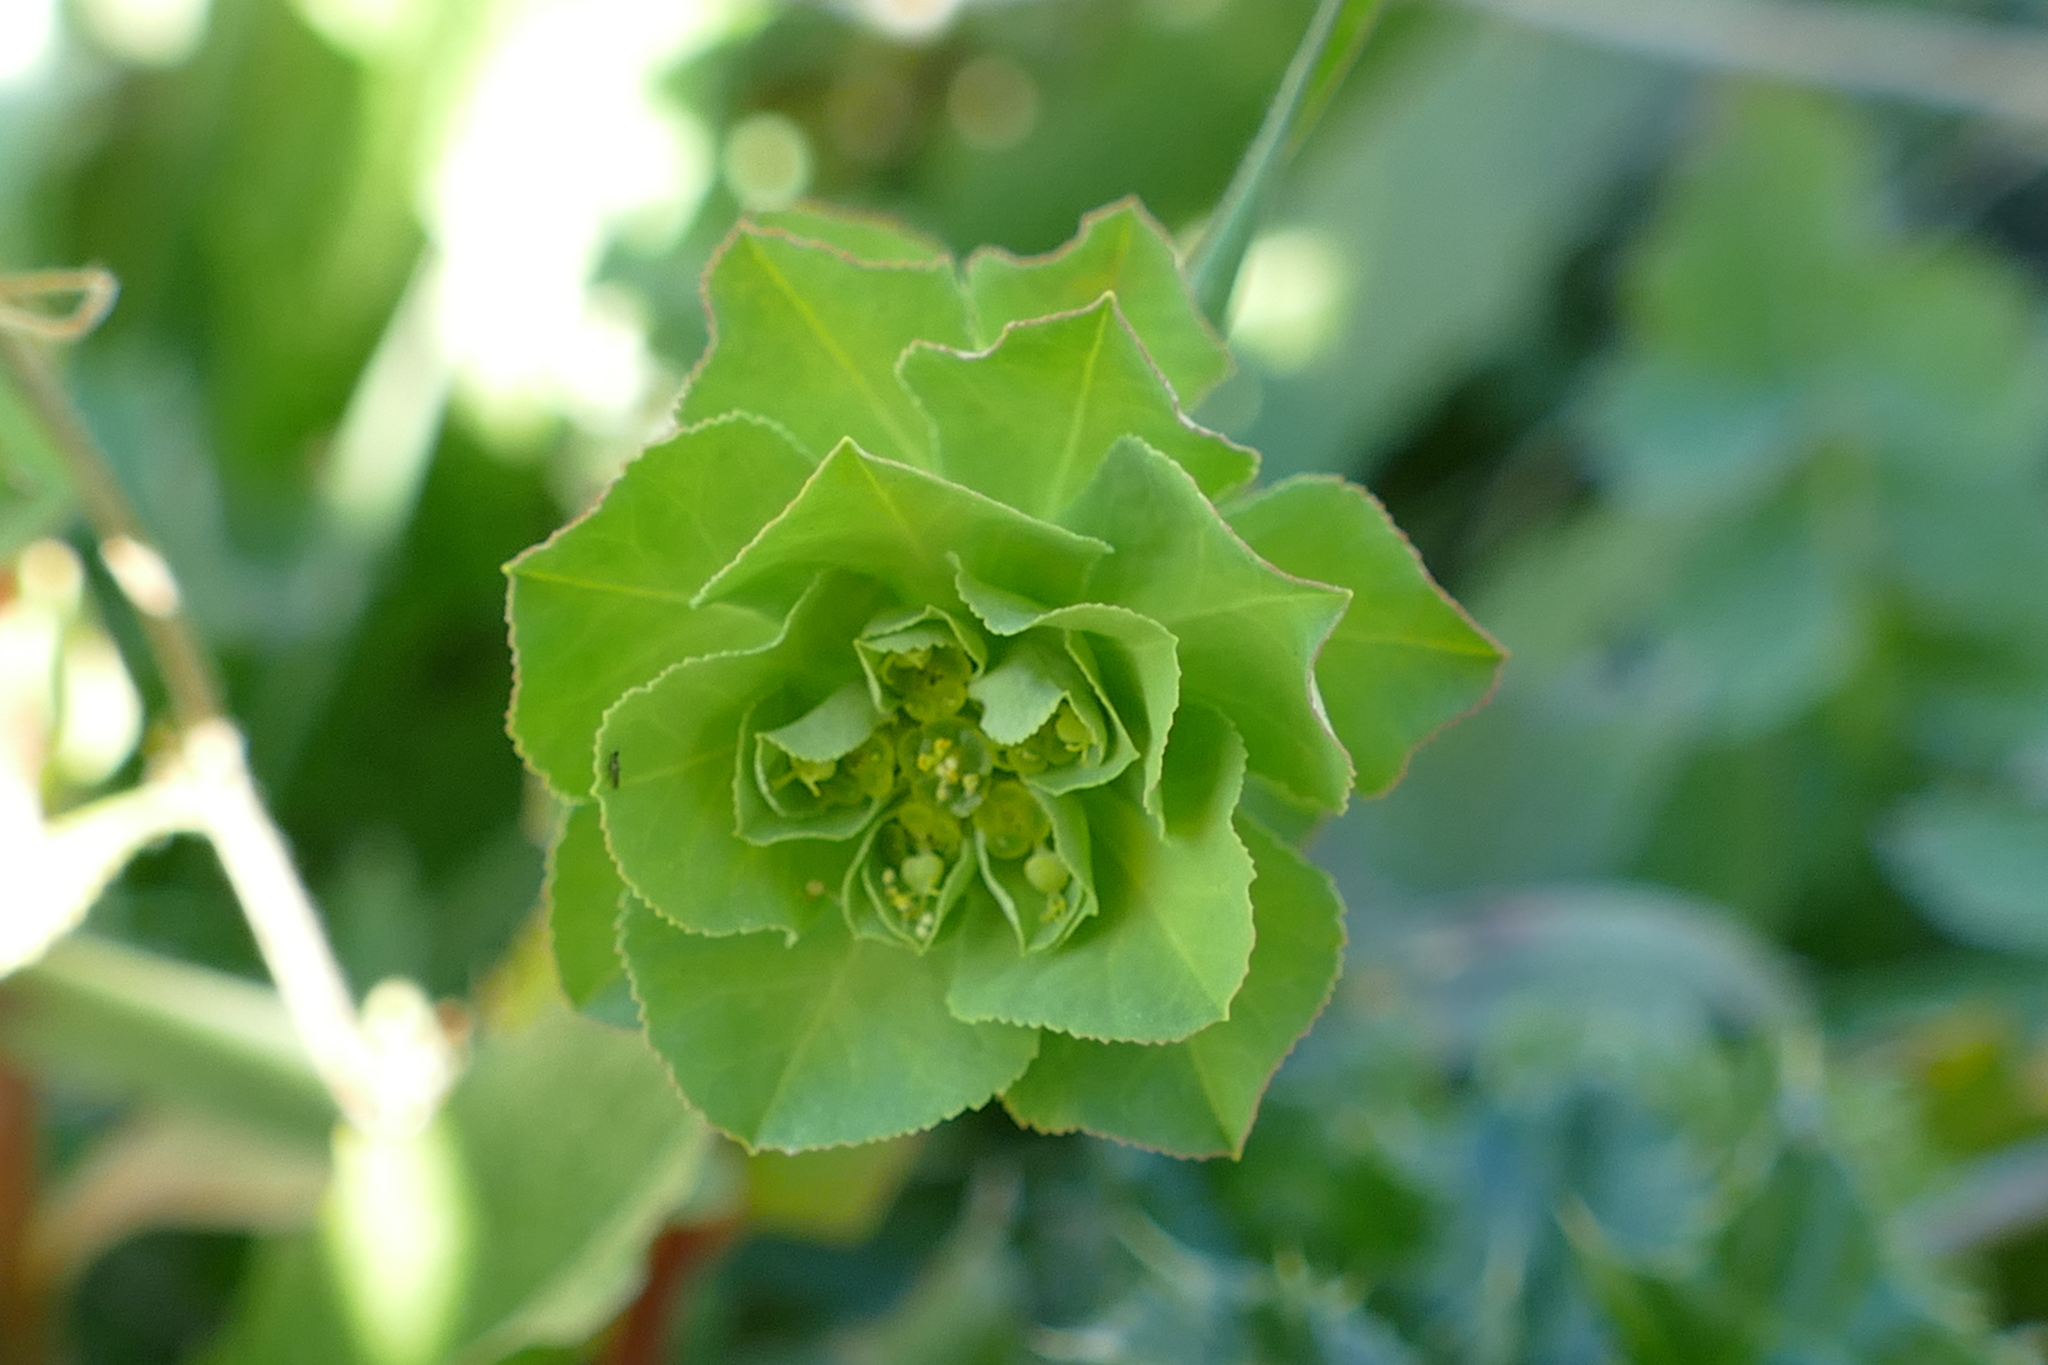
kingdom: Plantae
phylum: Tracheophyta
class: Magnoliopsida
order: Malpighiales
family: Euphorbiaceae
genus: Euphorbia
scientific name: Euphorbia helioscopia
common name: Sun spurge
